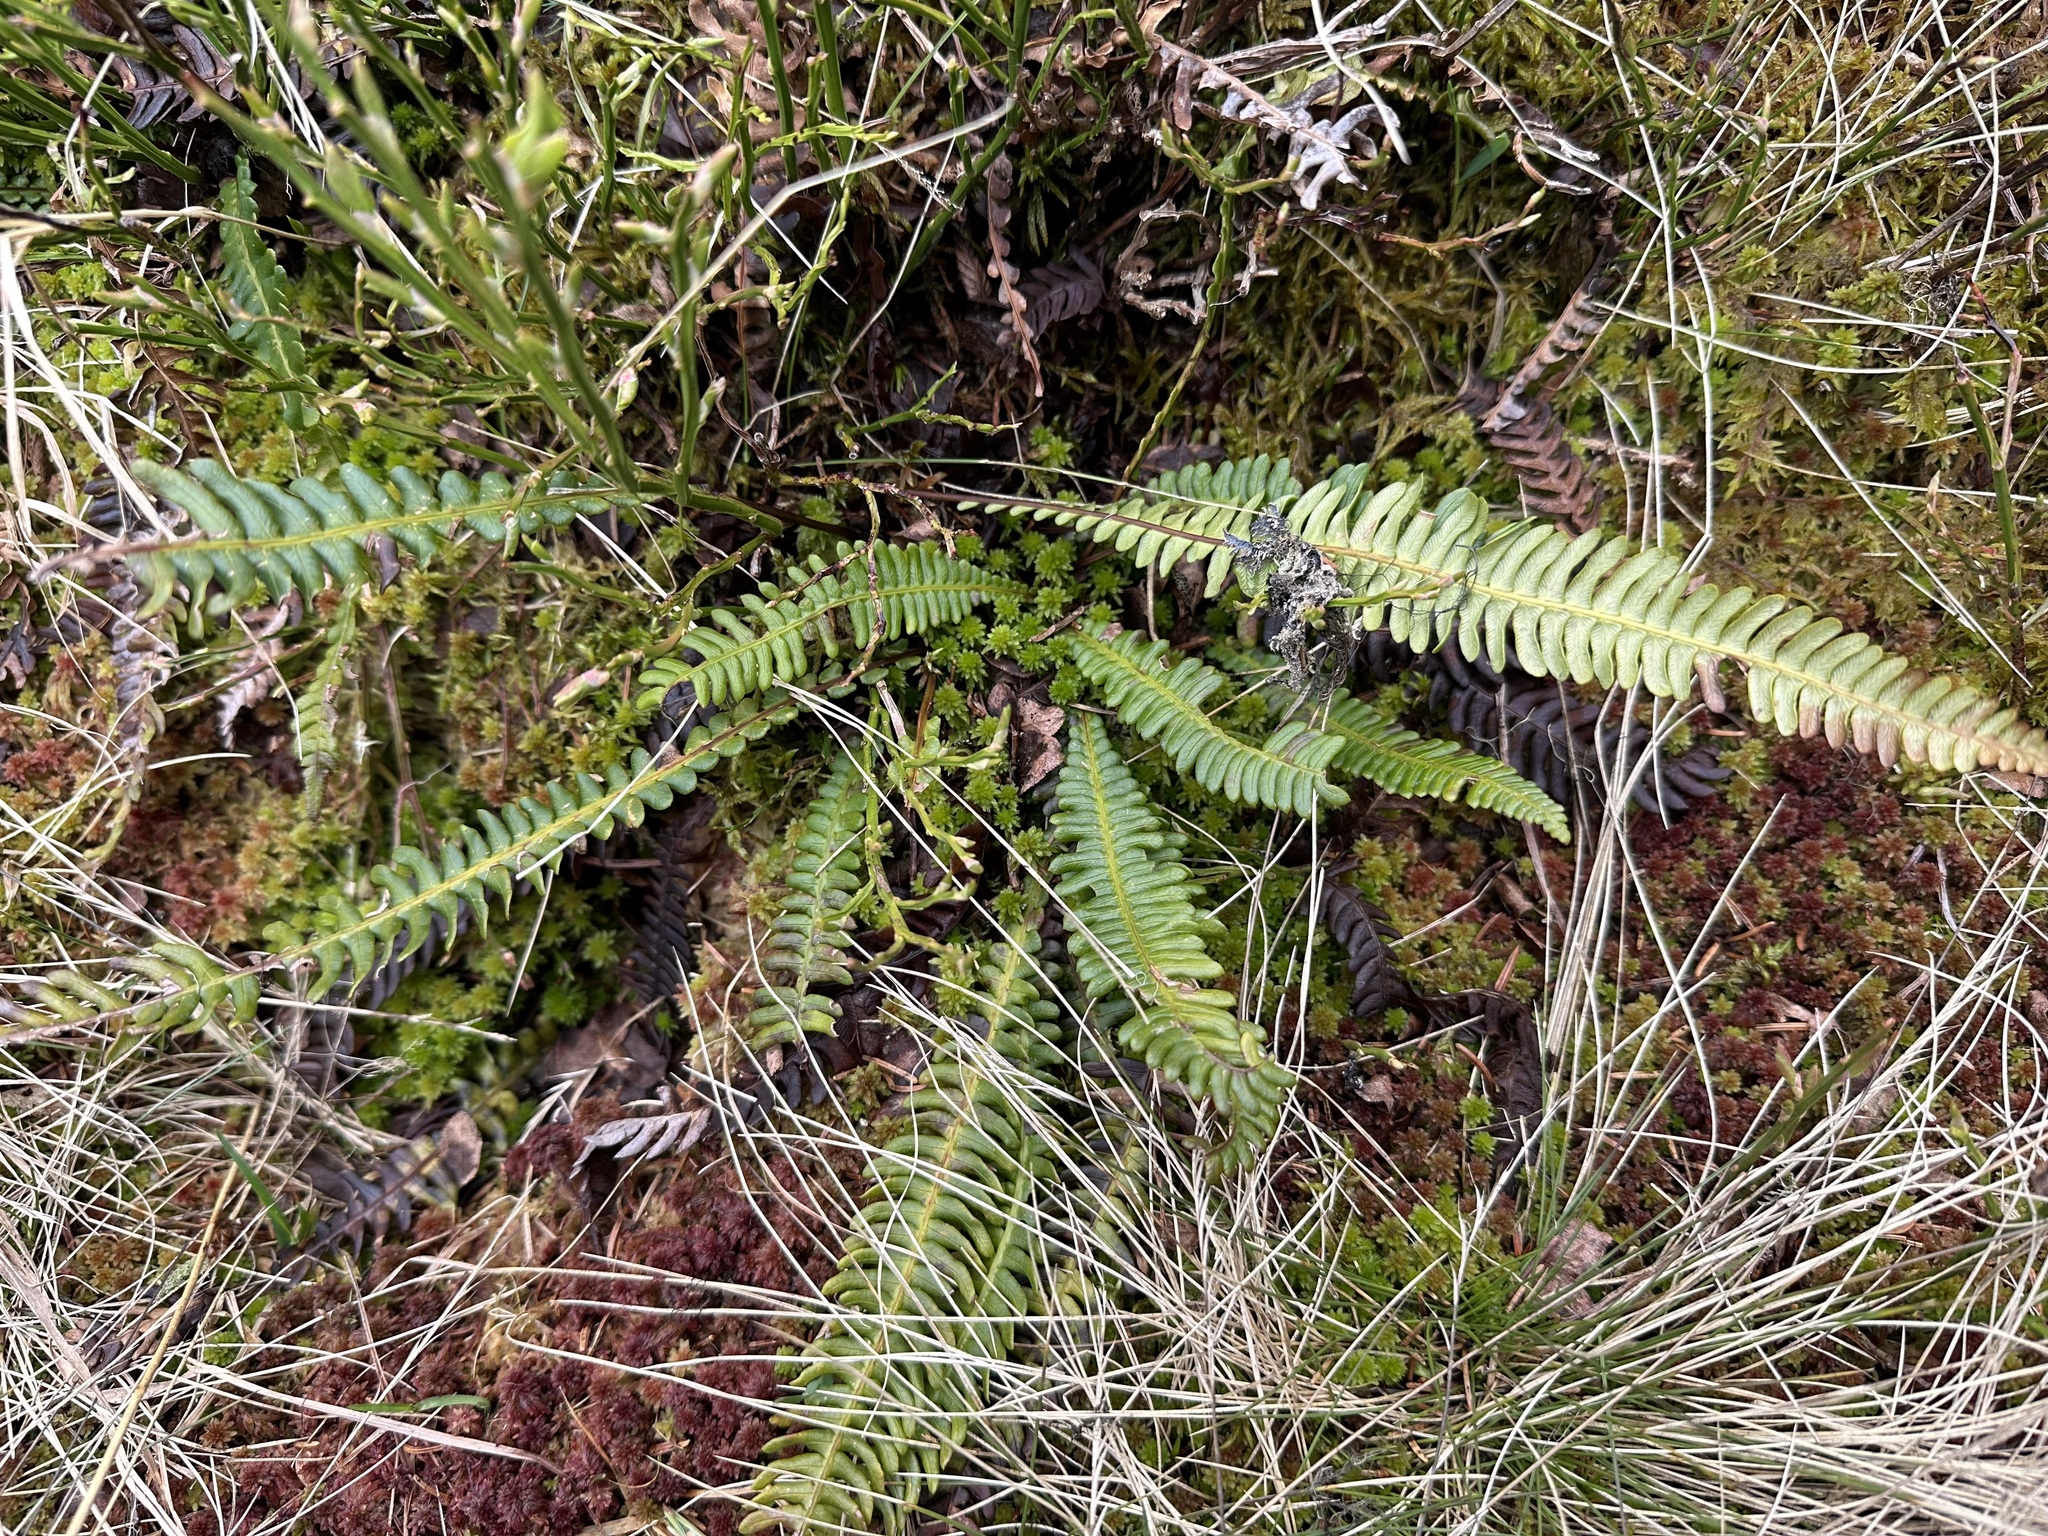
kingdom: Plantae
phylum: Tracheophyta
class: Polypodiopsida
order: Polypodiales
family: Blechnaceae
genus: Struthiopteris
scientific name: Struthiopteris spicant
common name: Deer fern
